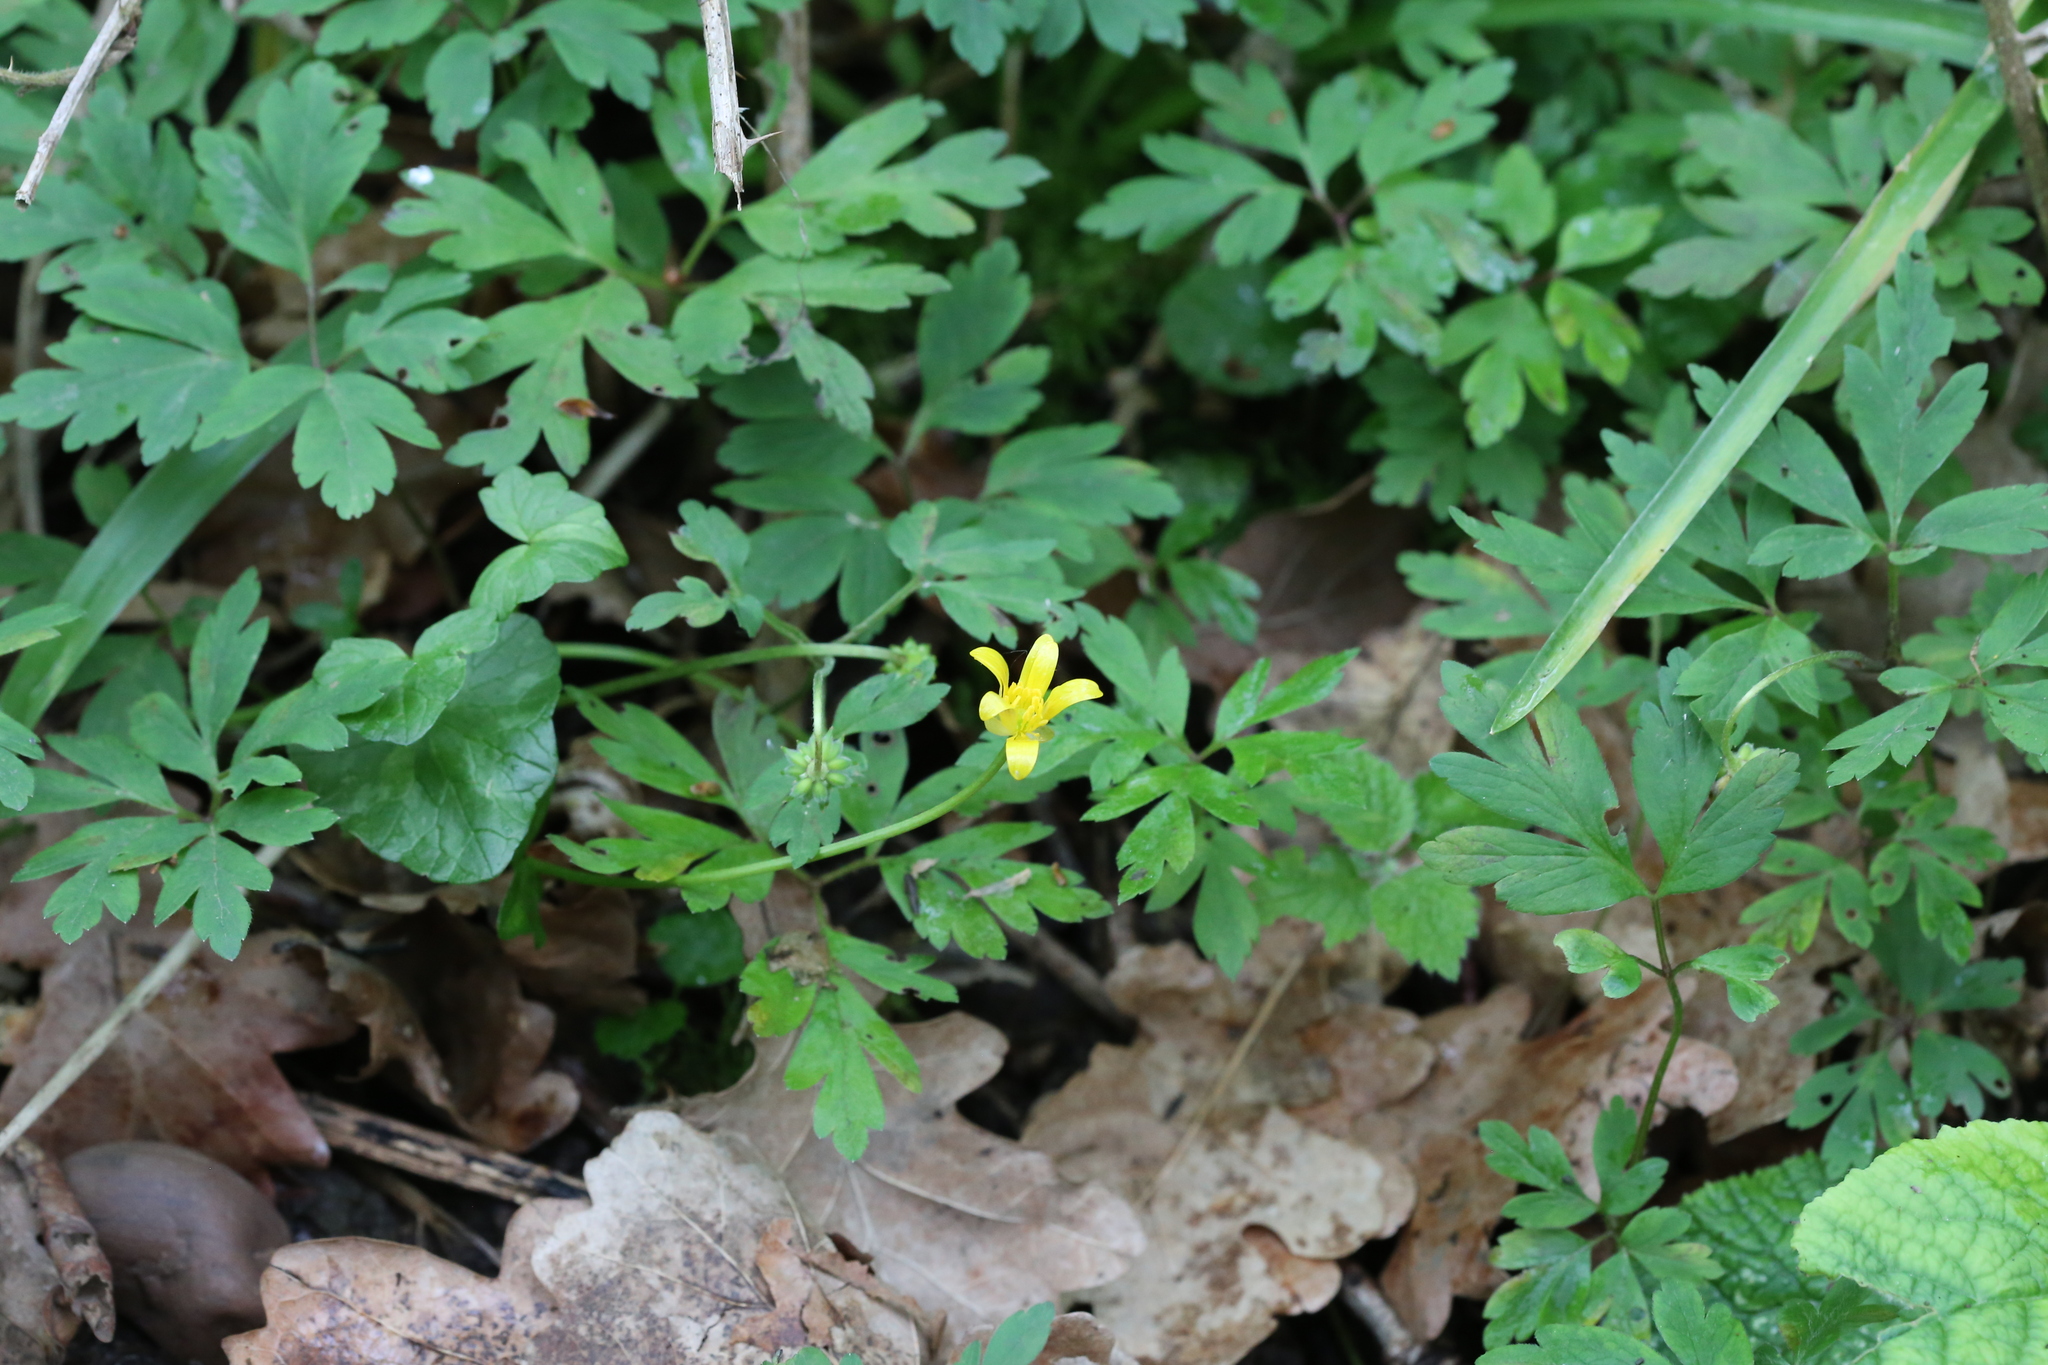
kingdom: Plantae
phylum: Tracheophyta
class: Magnoliopsida
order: Ranunculales
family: Ranunculaceae
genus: Ficaria
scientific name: Ficaria verna
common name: Lesser celandine
